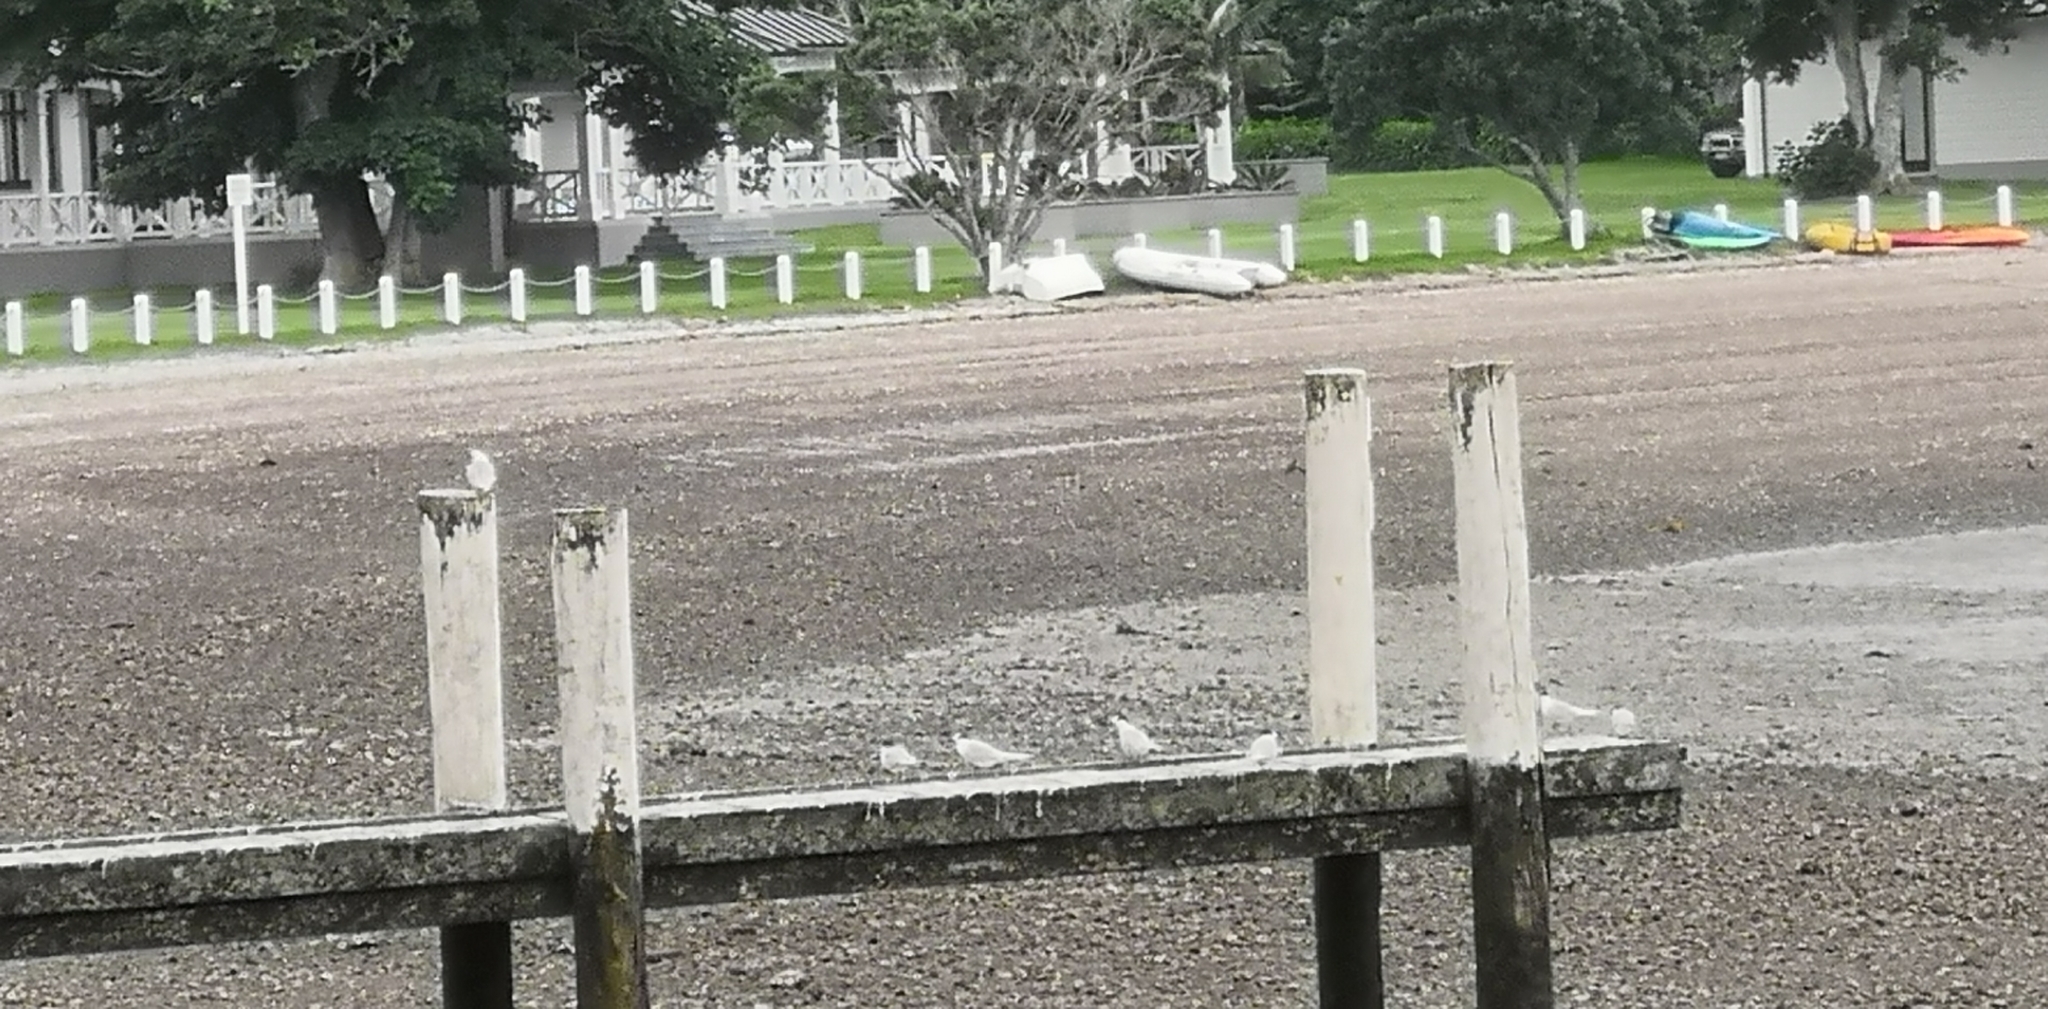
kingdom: Animalia
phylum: Chordata
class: Aves
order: Charadriiformes
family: Laridae
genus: Sterna
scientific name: Sterna striata
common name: White-fronted tern
